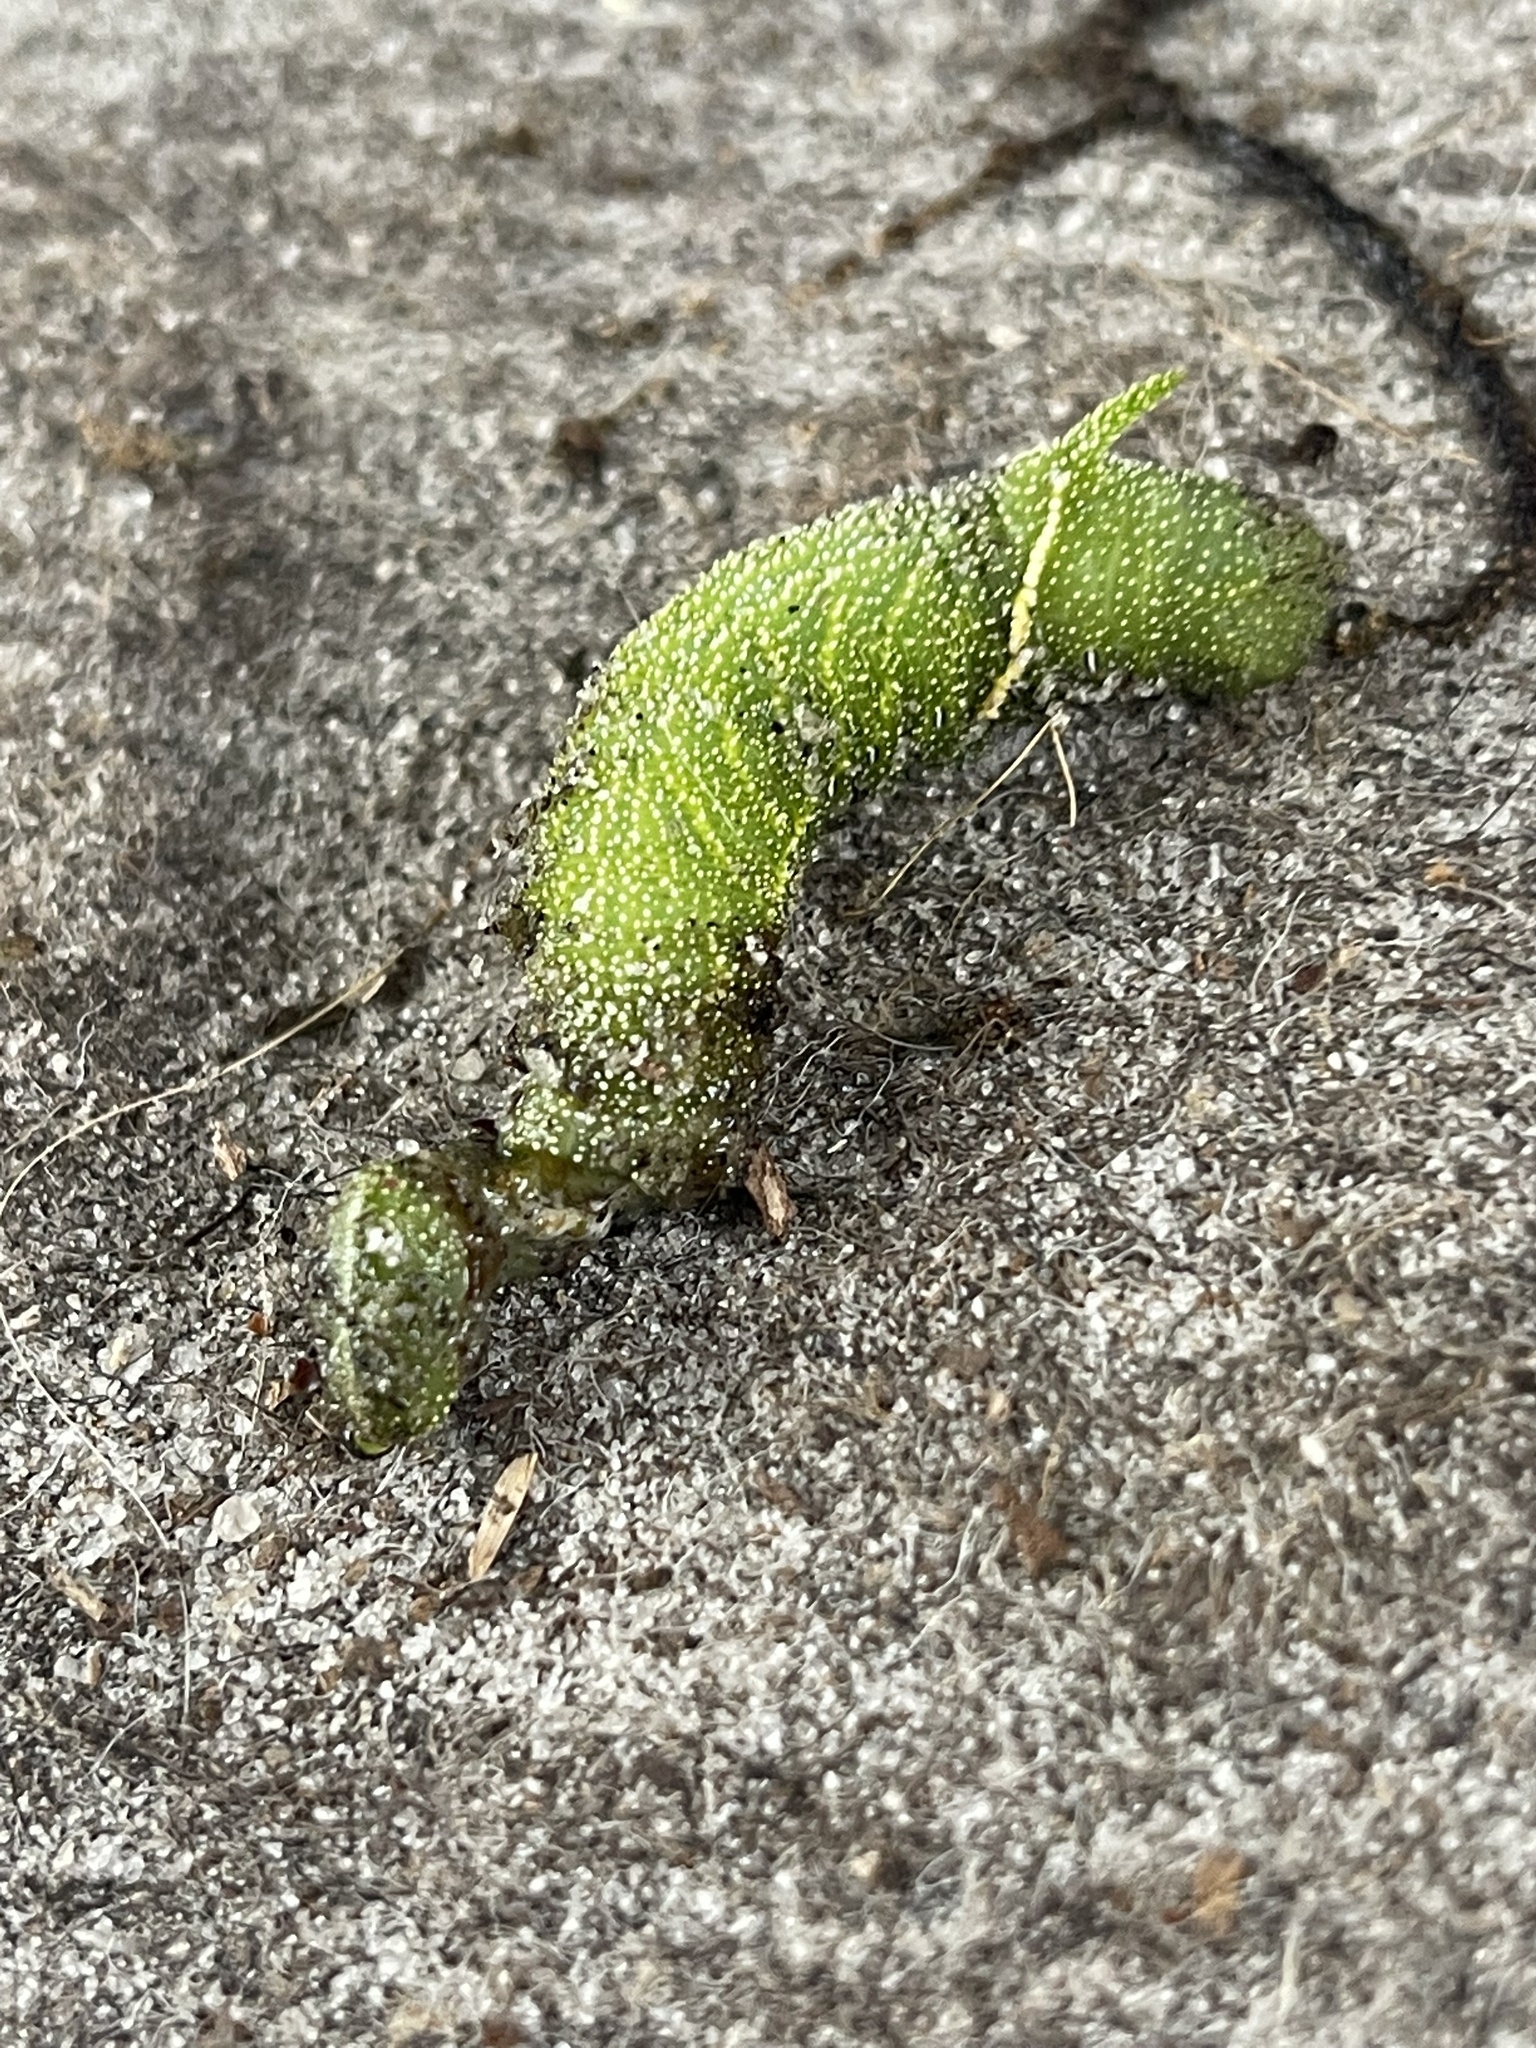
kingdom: Animalia
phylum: Arthropoda
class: Insecta
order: Lepidoptera
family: Sphingidae
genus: Paonias
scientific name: Paonias excaecata
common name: Blind-eyed sphinx
